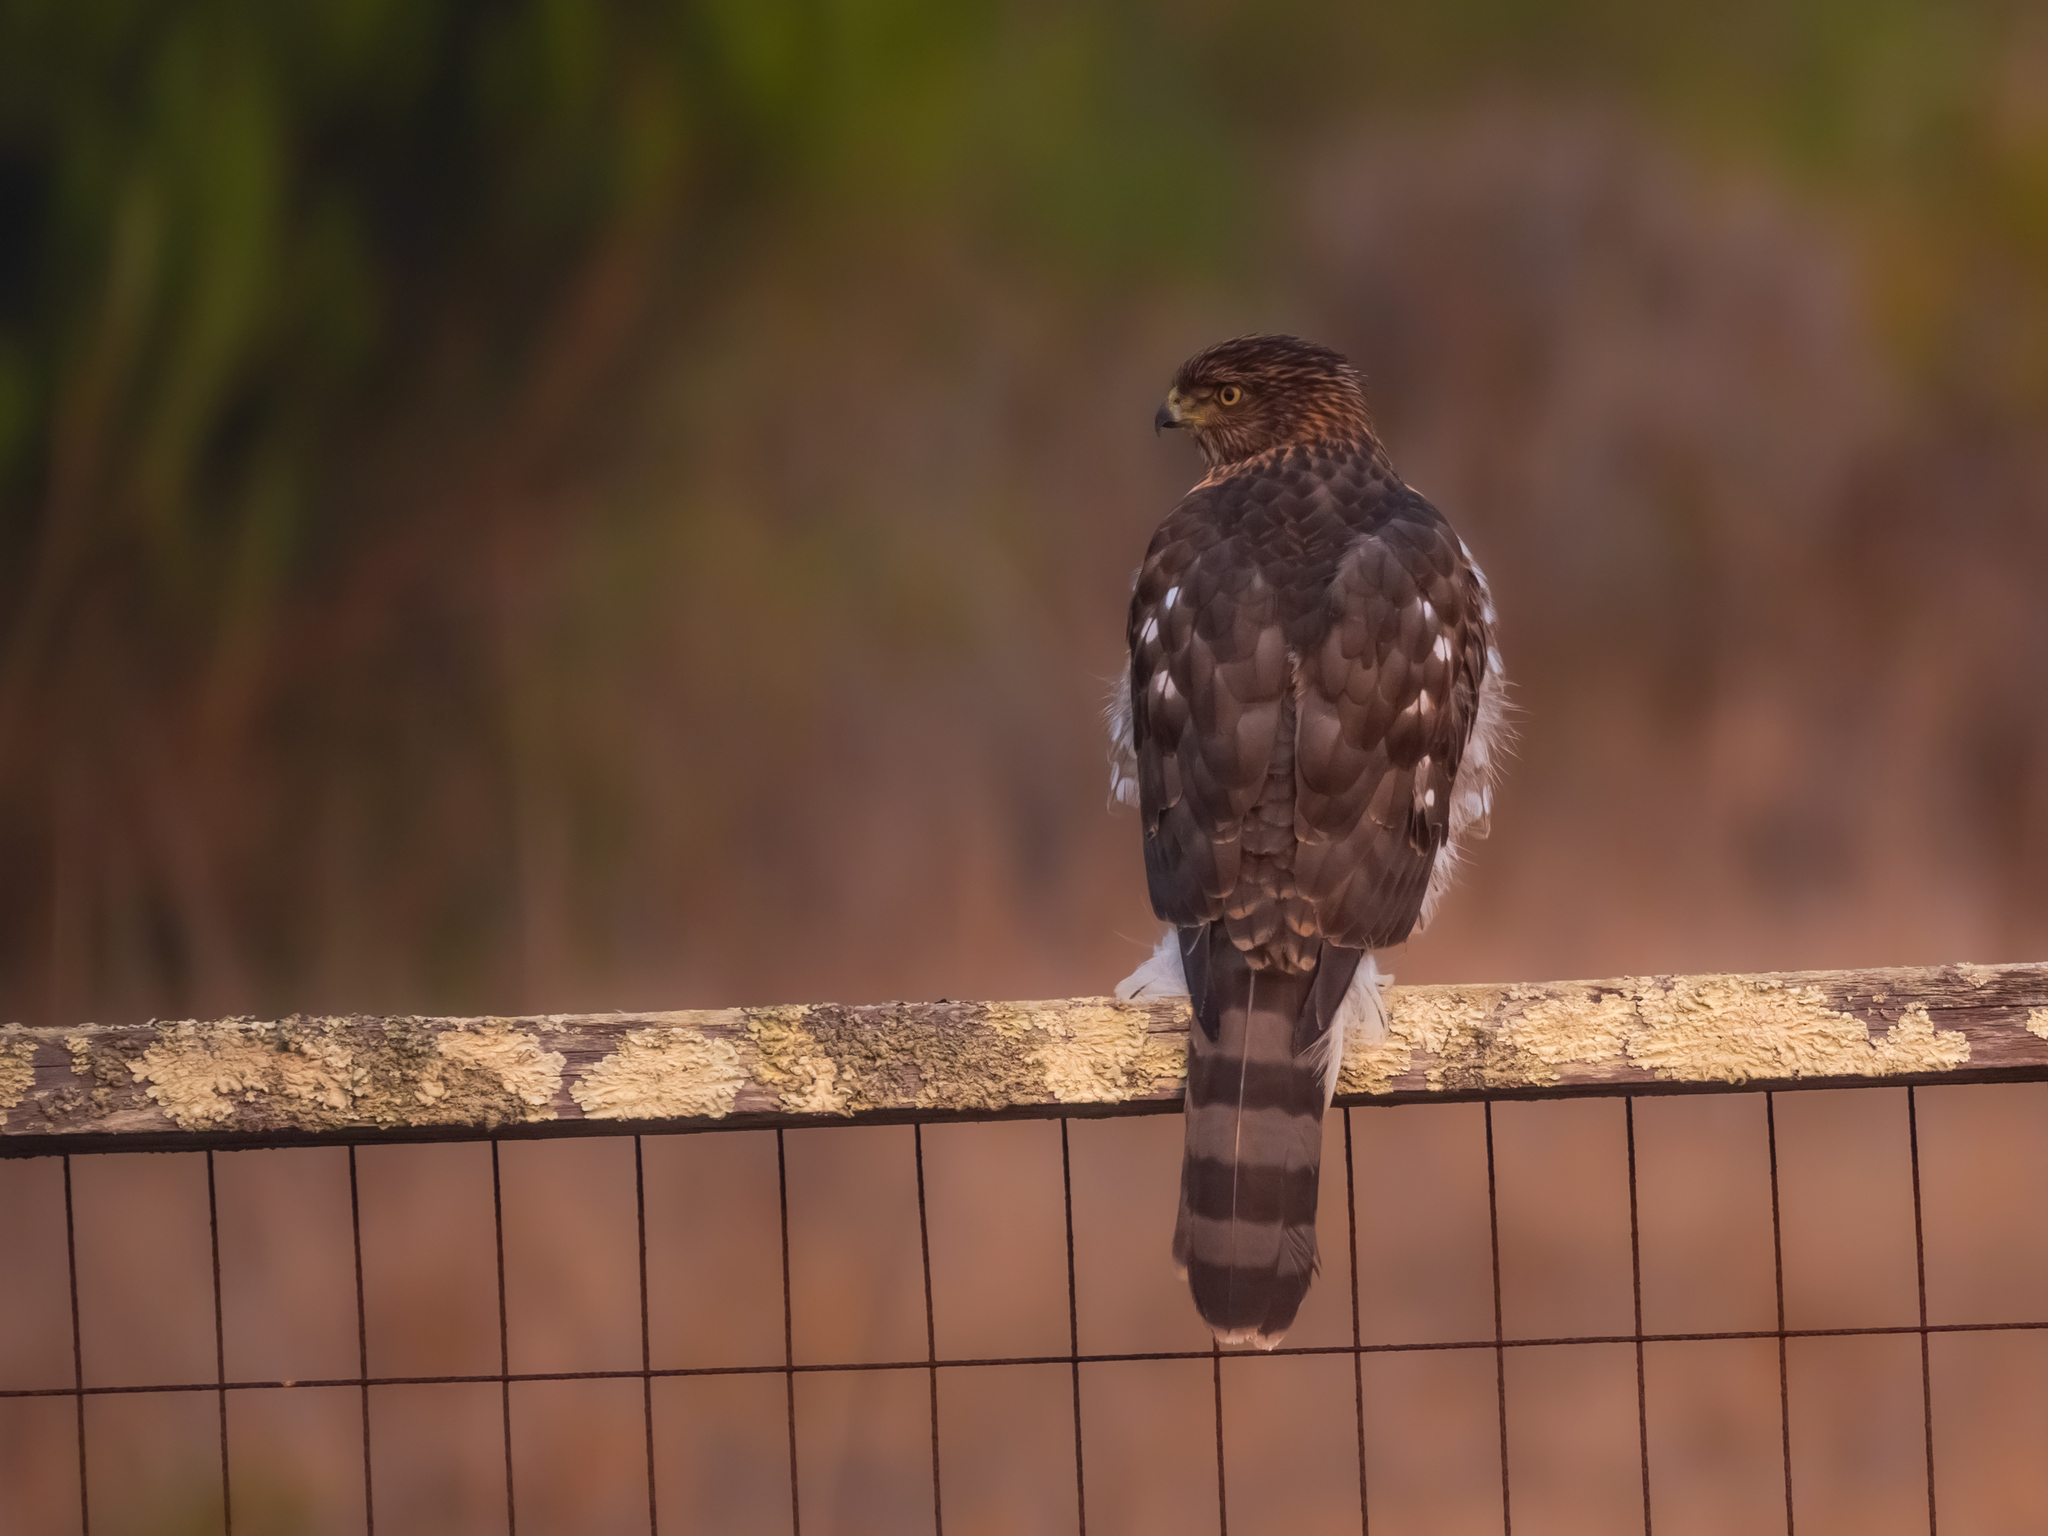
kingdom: Animalia
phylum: Chordata
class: Aves
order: Accipitriformes
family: Accipitridae
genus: Accipiter
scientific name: Accipiter cooperii
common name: Cooper's hawk
